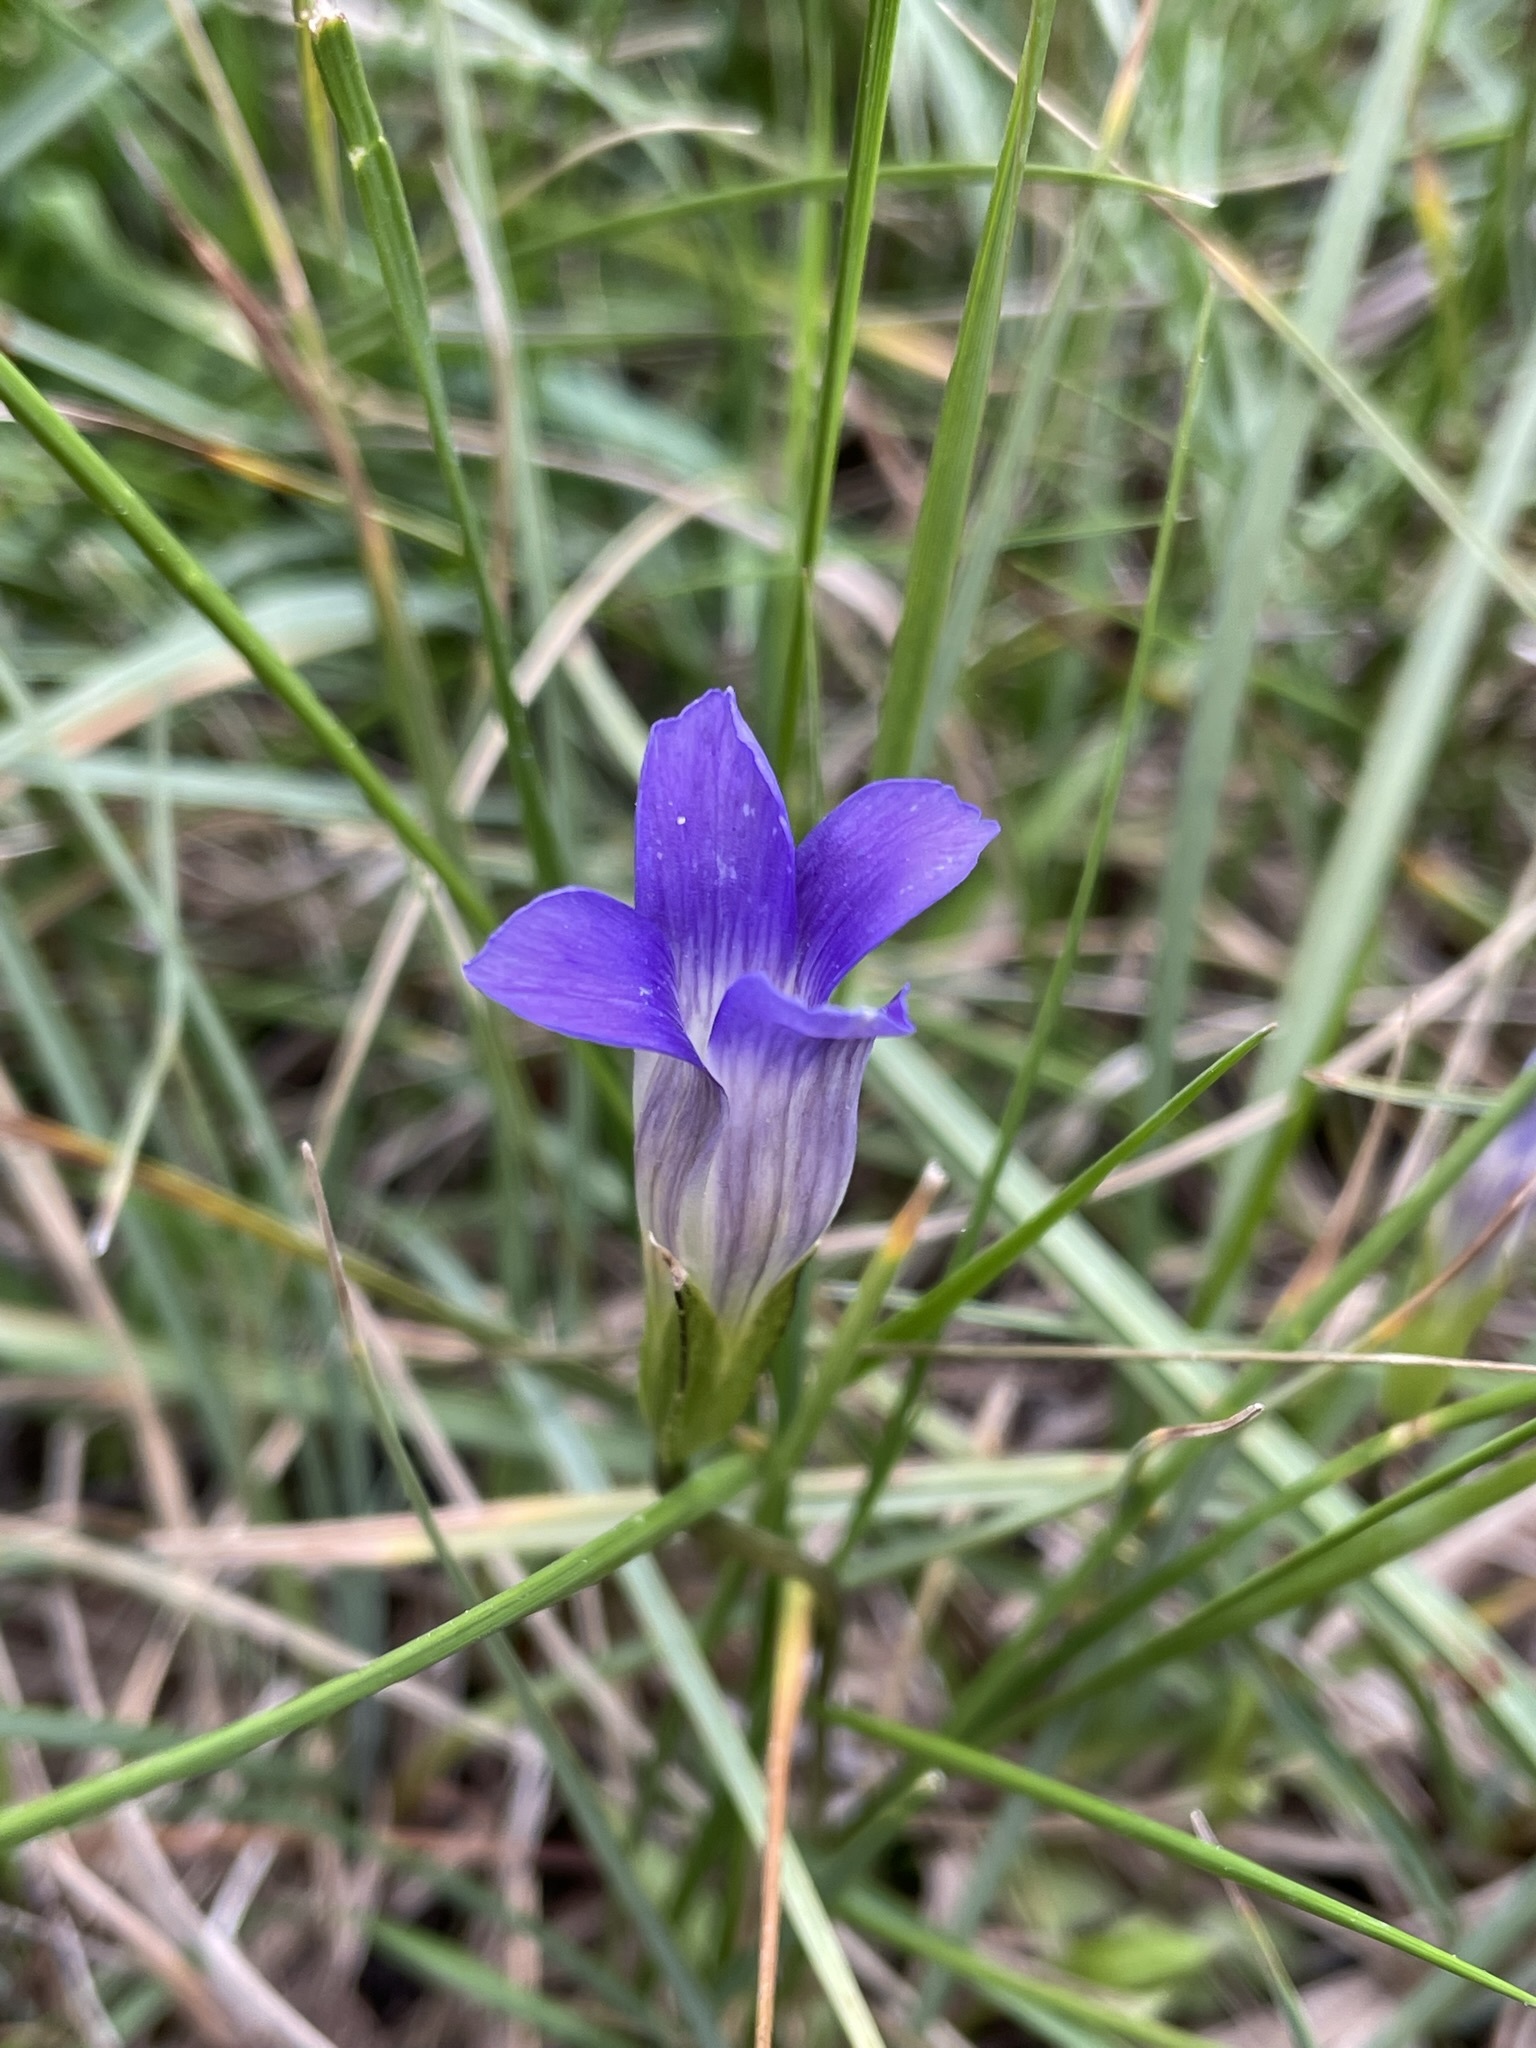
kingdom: Plantae
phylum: Tracheophyta
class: Magnoliopsida
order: Gentianales
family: Gentianaceae
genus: Gentianopsis
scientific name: Gentianopsis holopetala
